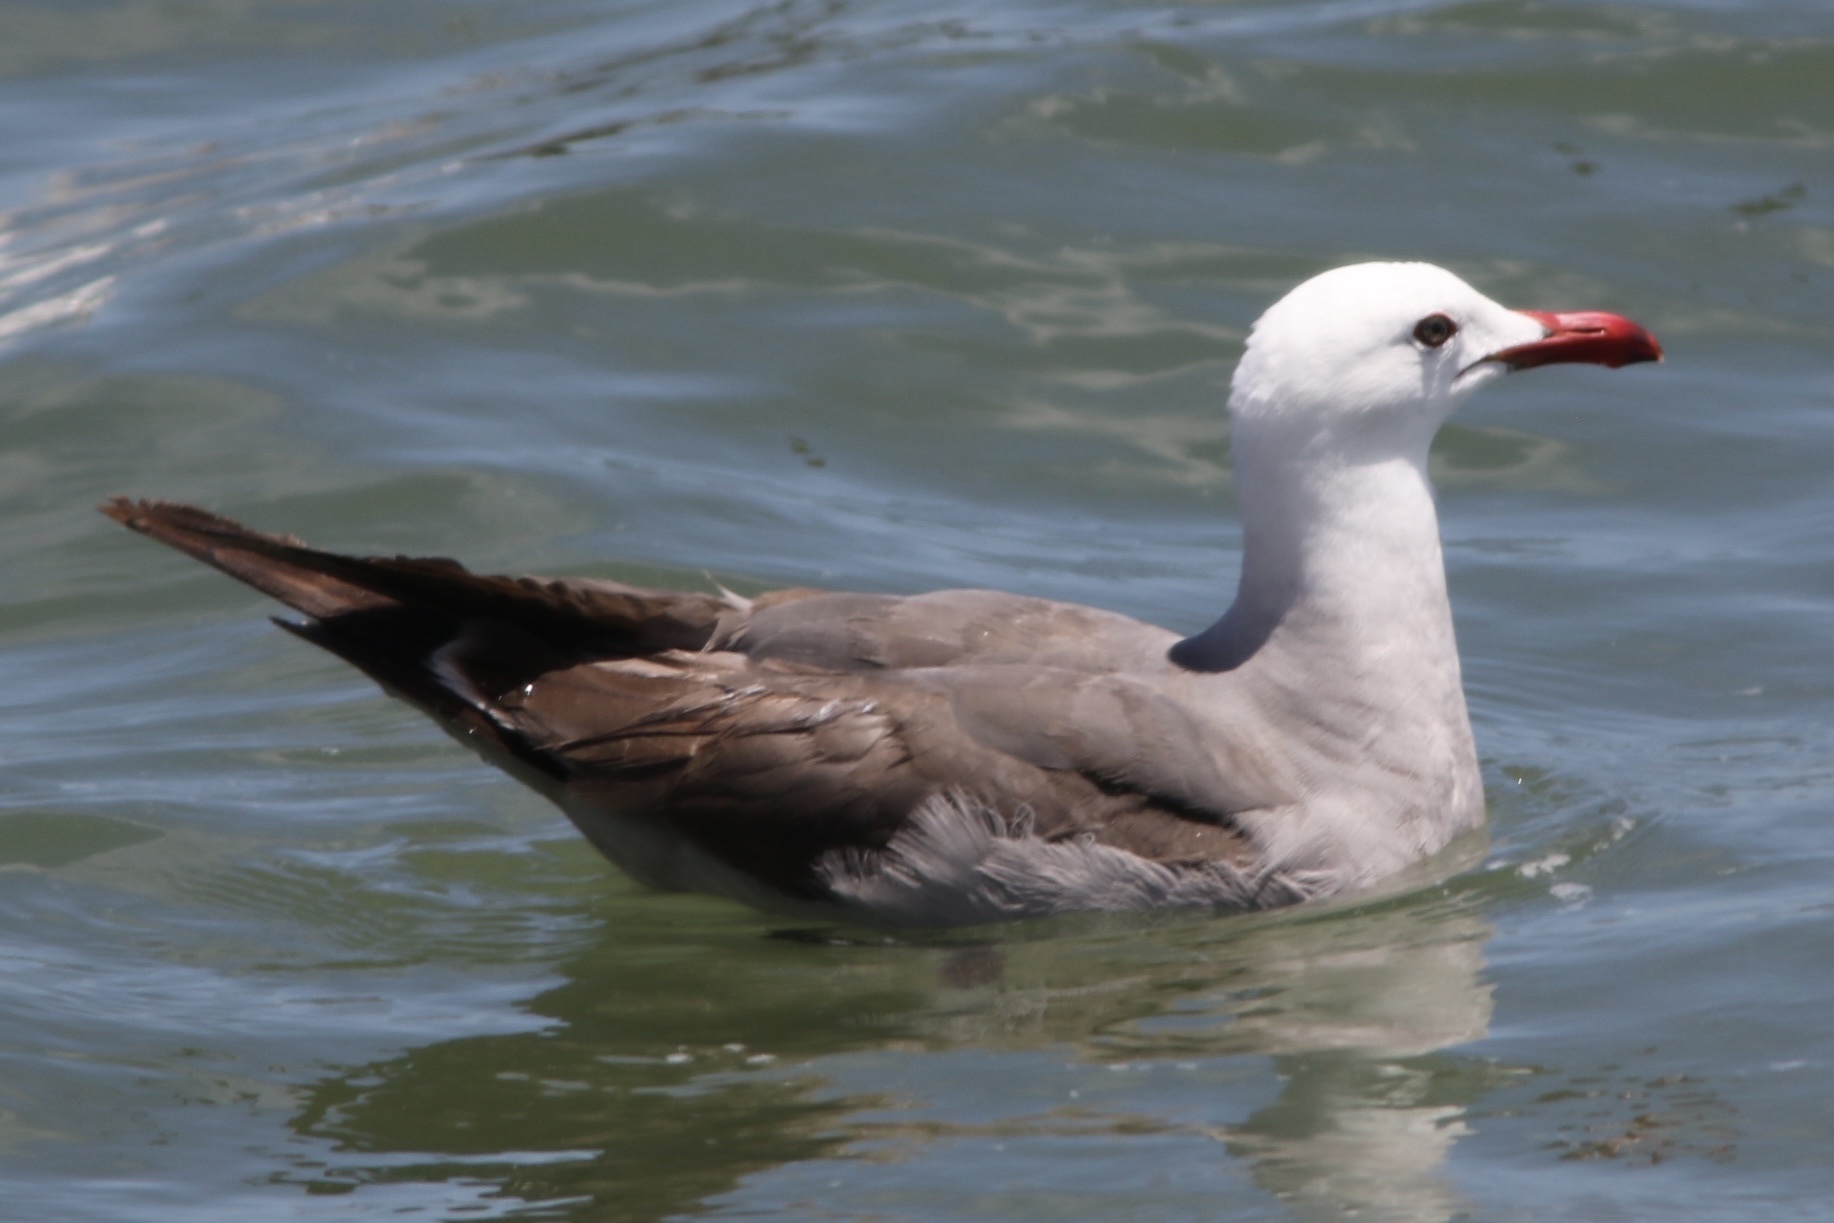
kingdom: Animalia
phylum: Chordata
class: Aves
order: Charadriiformes
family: Laridae
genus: Larus
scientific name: Larus heermanni
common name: Heermann's gull
